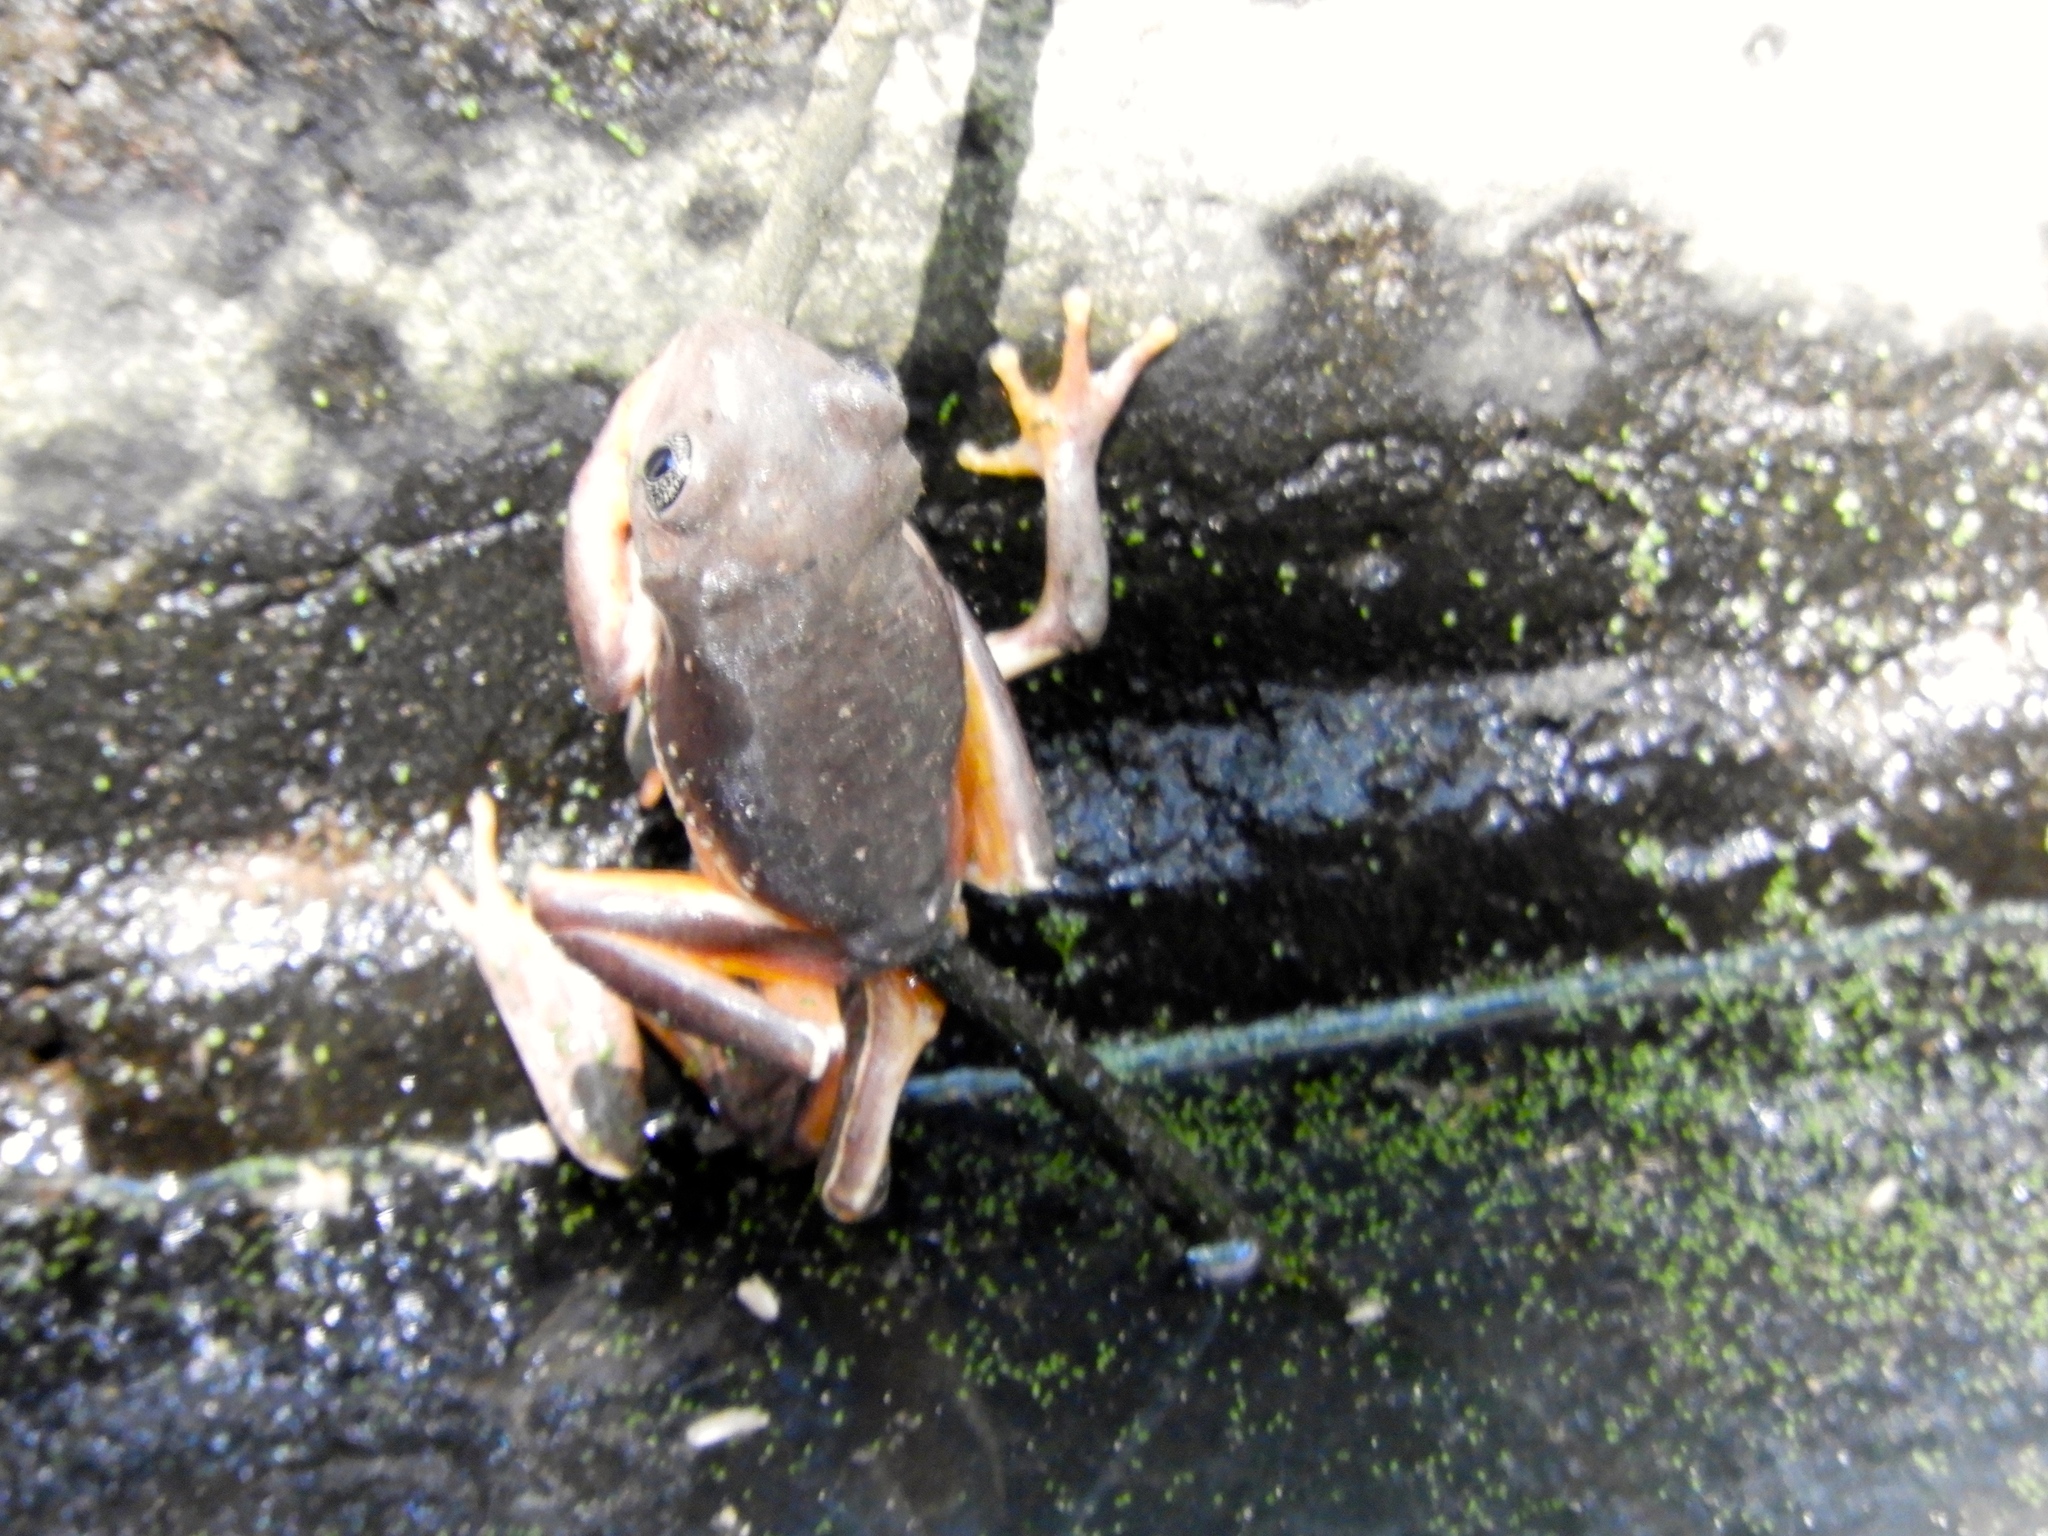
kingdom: Animalia
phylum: Chordata
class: Amphibia
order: Anura
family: Phyllomedusidae
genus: Agalychnis
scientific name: Agalychnis dacnicolor
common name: Mexican giant tree frog
